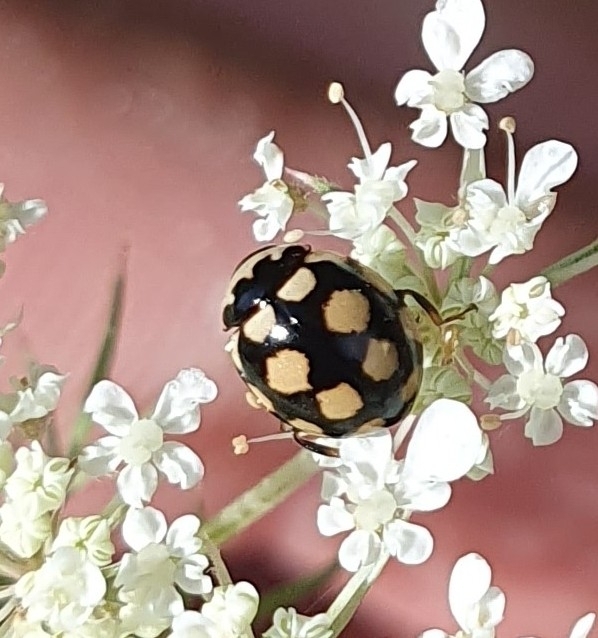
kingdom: Animalia
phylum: Arthropoda
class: Insecta
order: Coleoptera
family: Coccinellidae
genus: Coccinula
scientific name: Coccinula quatuordecimpustulata
